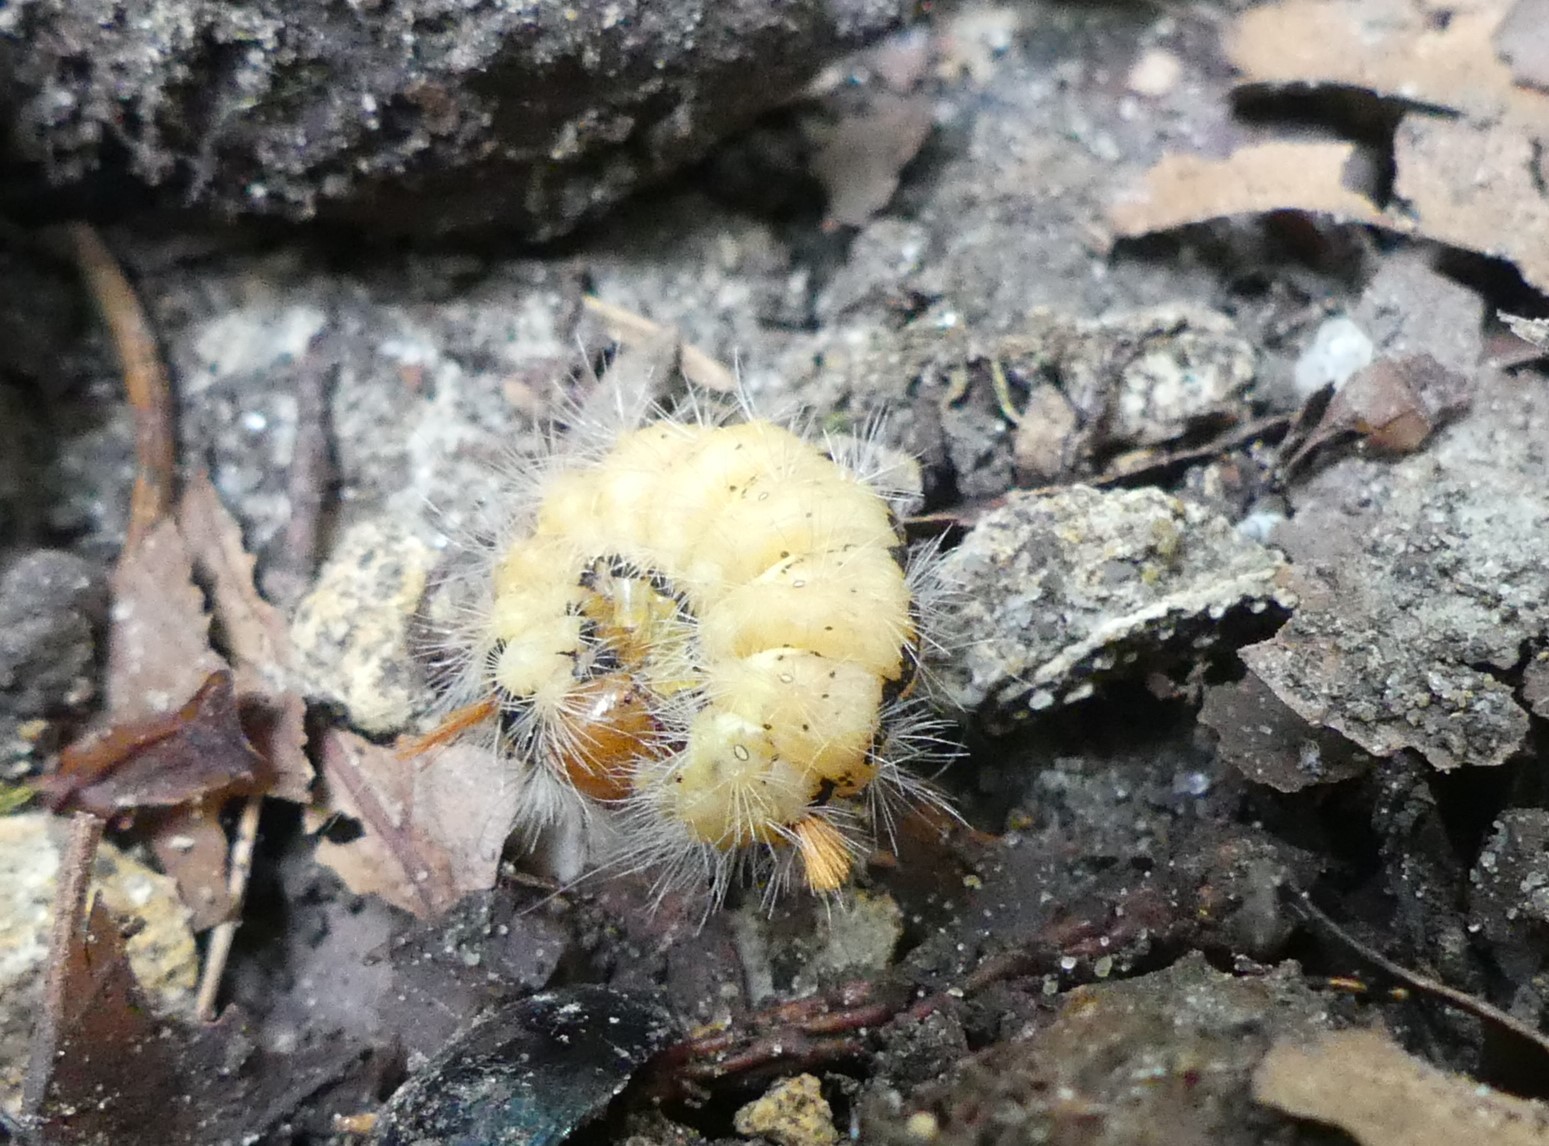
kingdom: Animalia
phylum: Arthropoda
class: Insecta
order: Lepidoptera
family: Noctuidae
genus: Colocasia
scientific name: Colocasia coryli
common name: Nut-tree tussock
